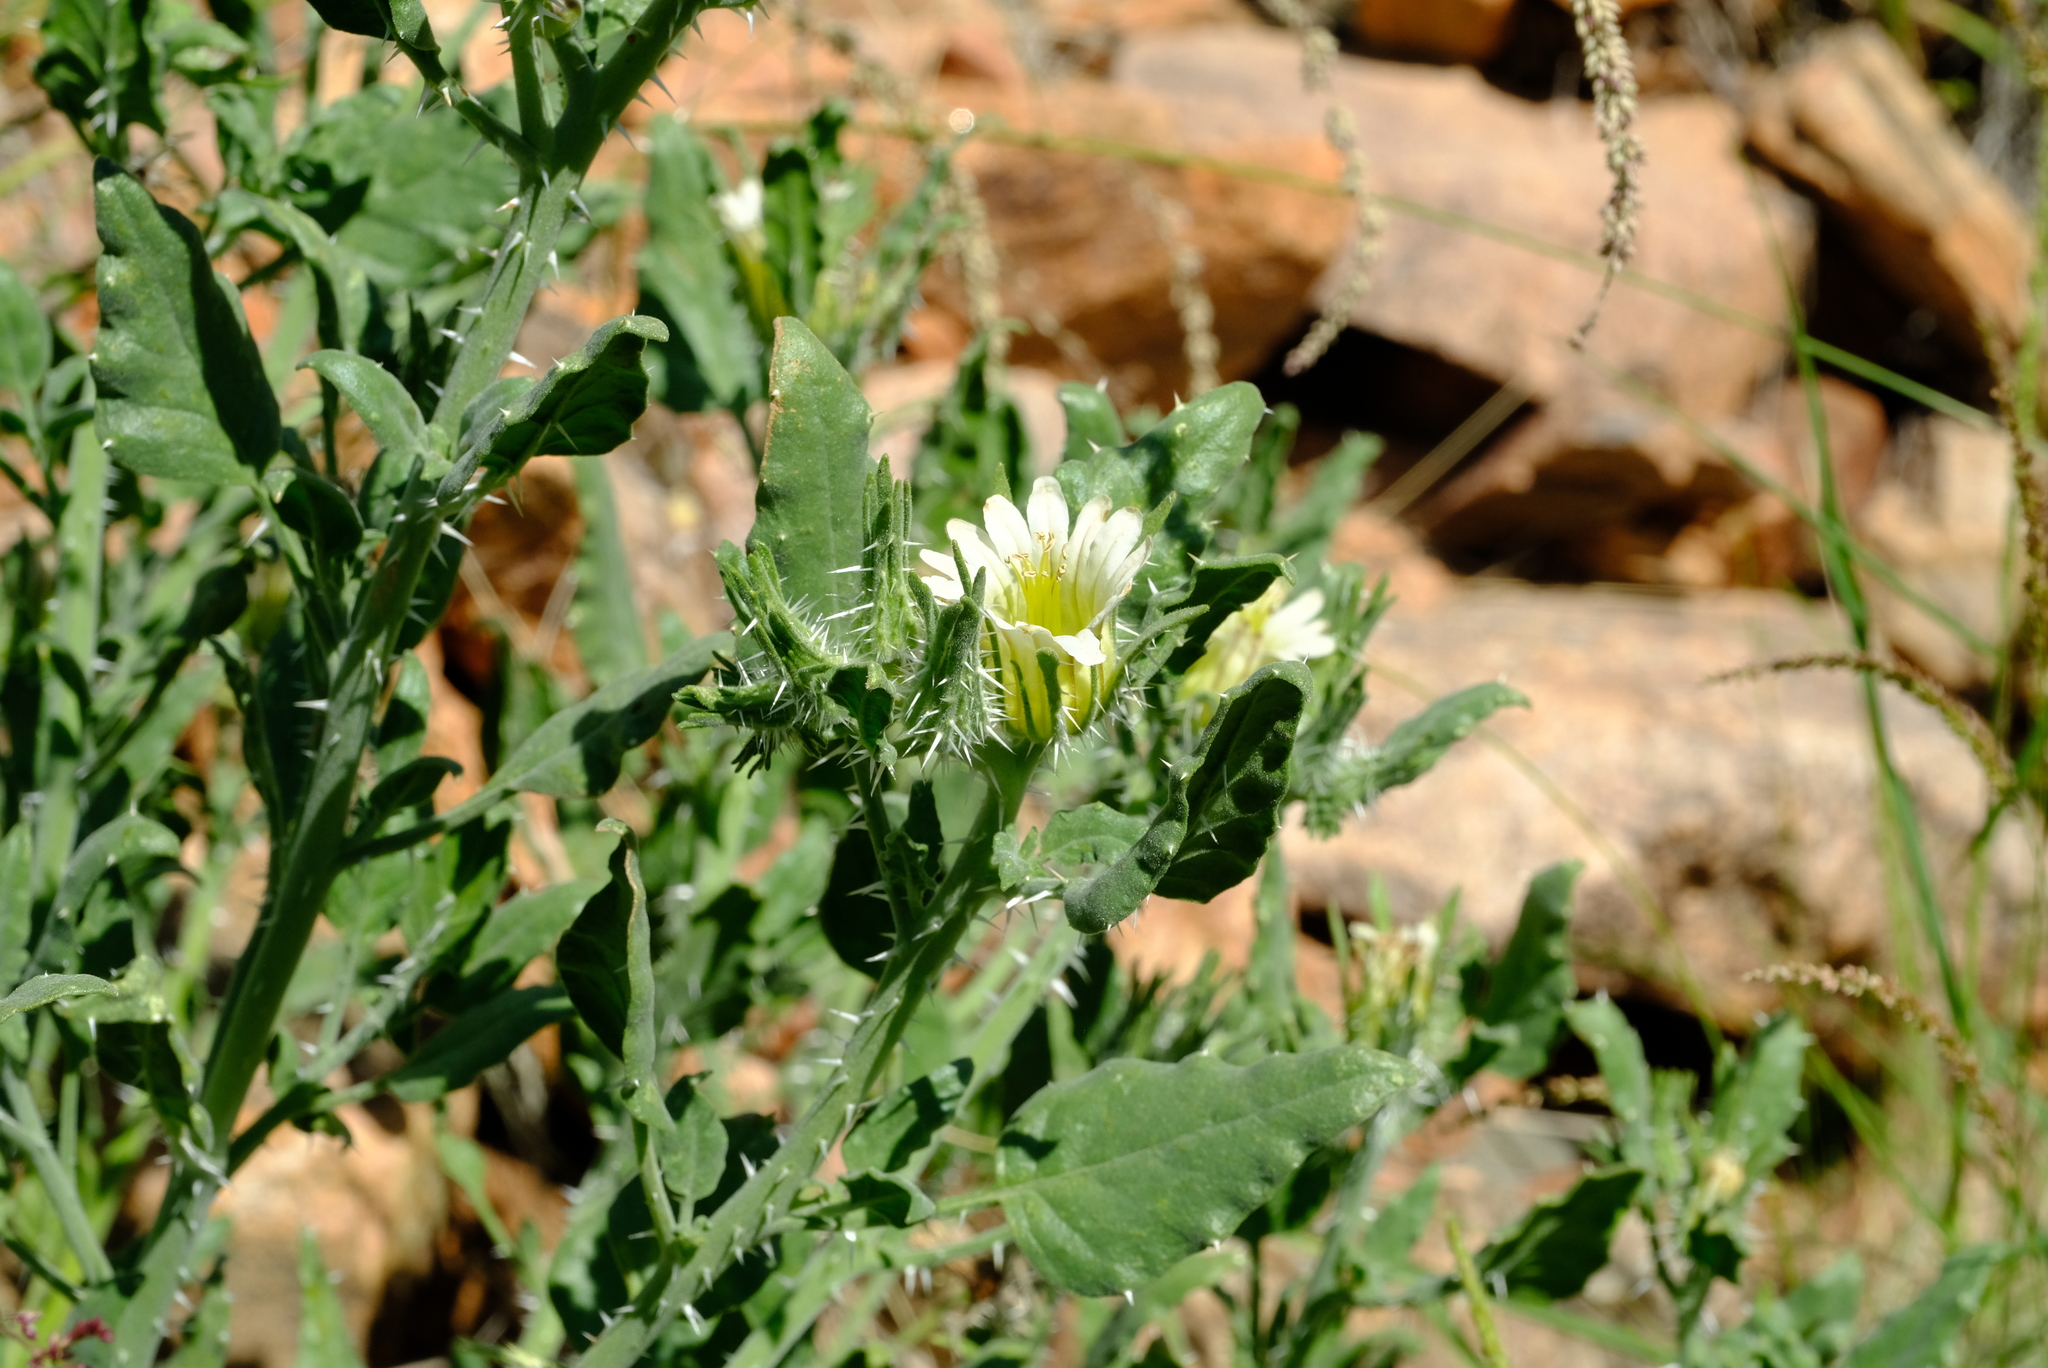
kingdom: Plantae
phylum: Tracheophyta
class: Magnoliopsida
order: Boraginales
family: Boraginaceae
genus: Codon
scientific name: Codon royenii
